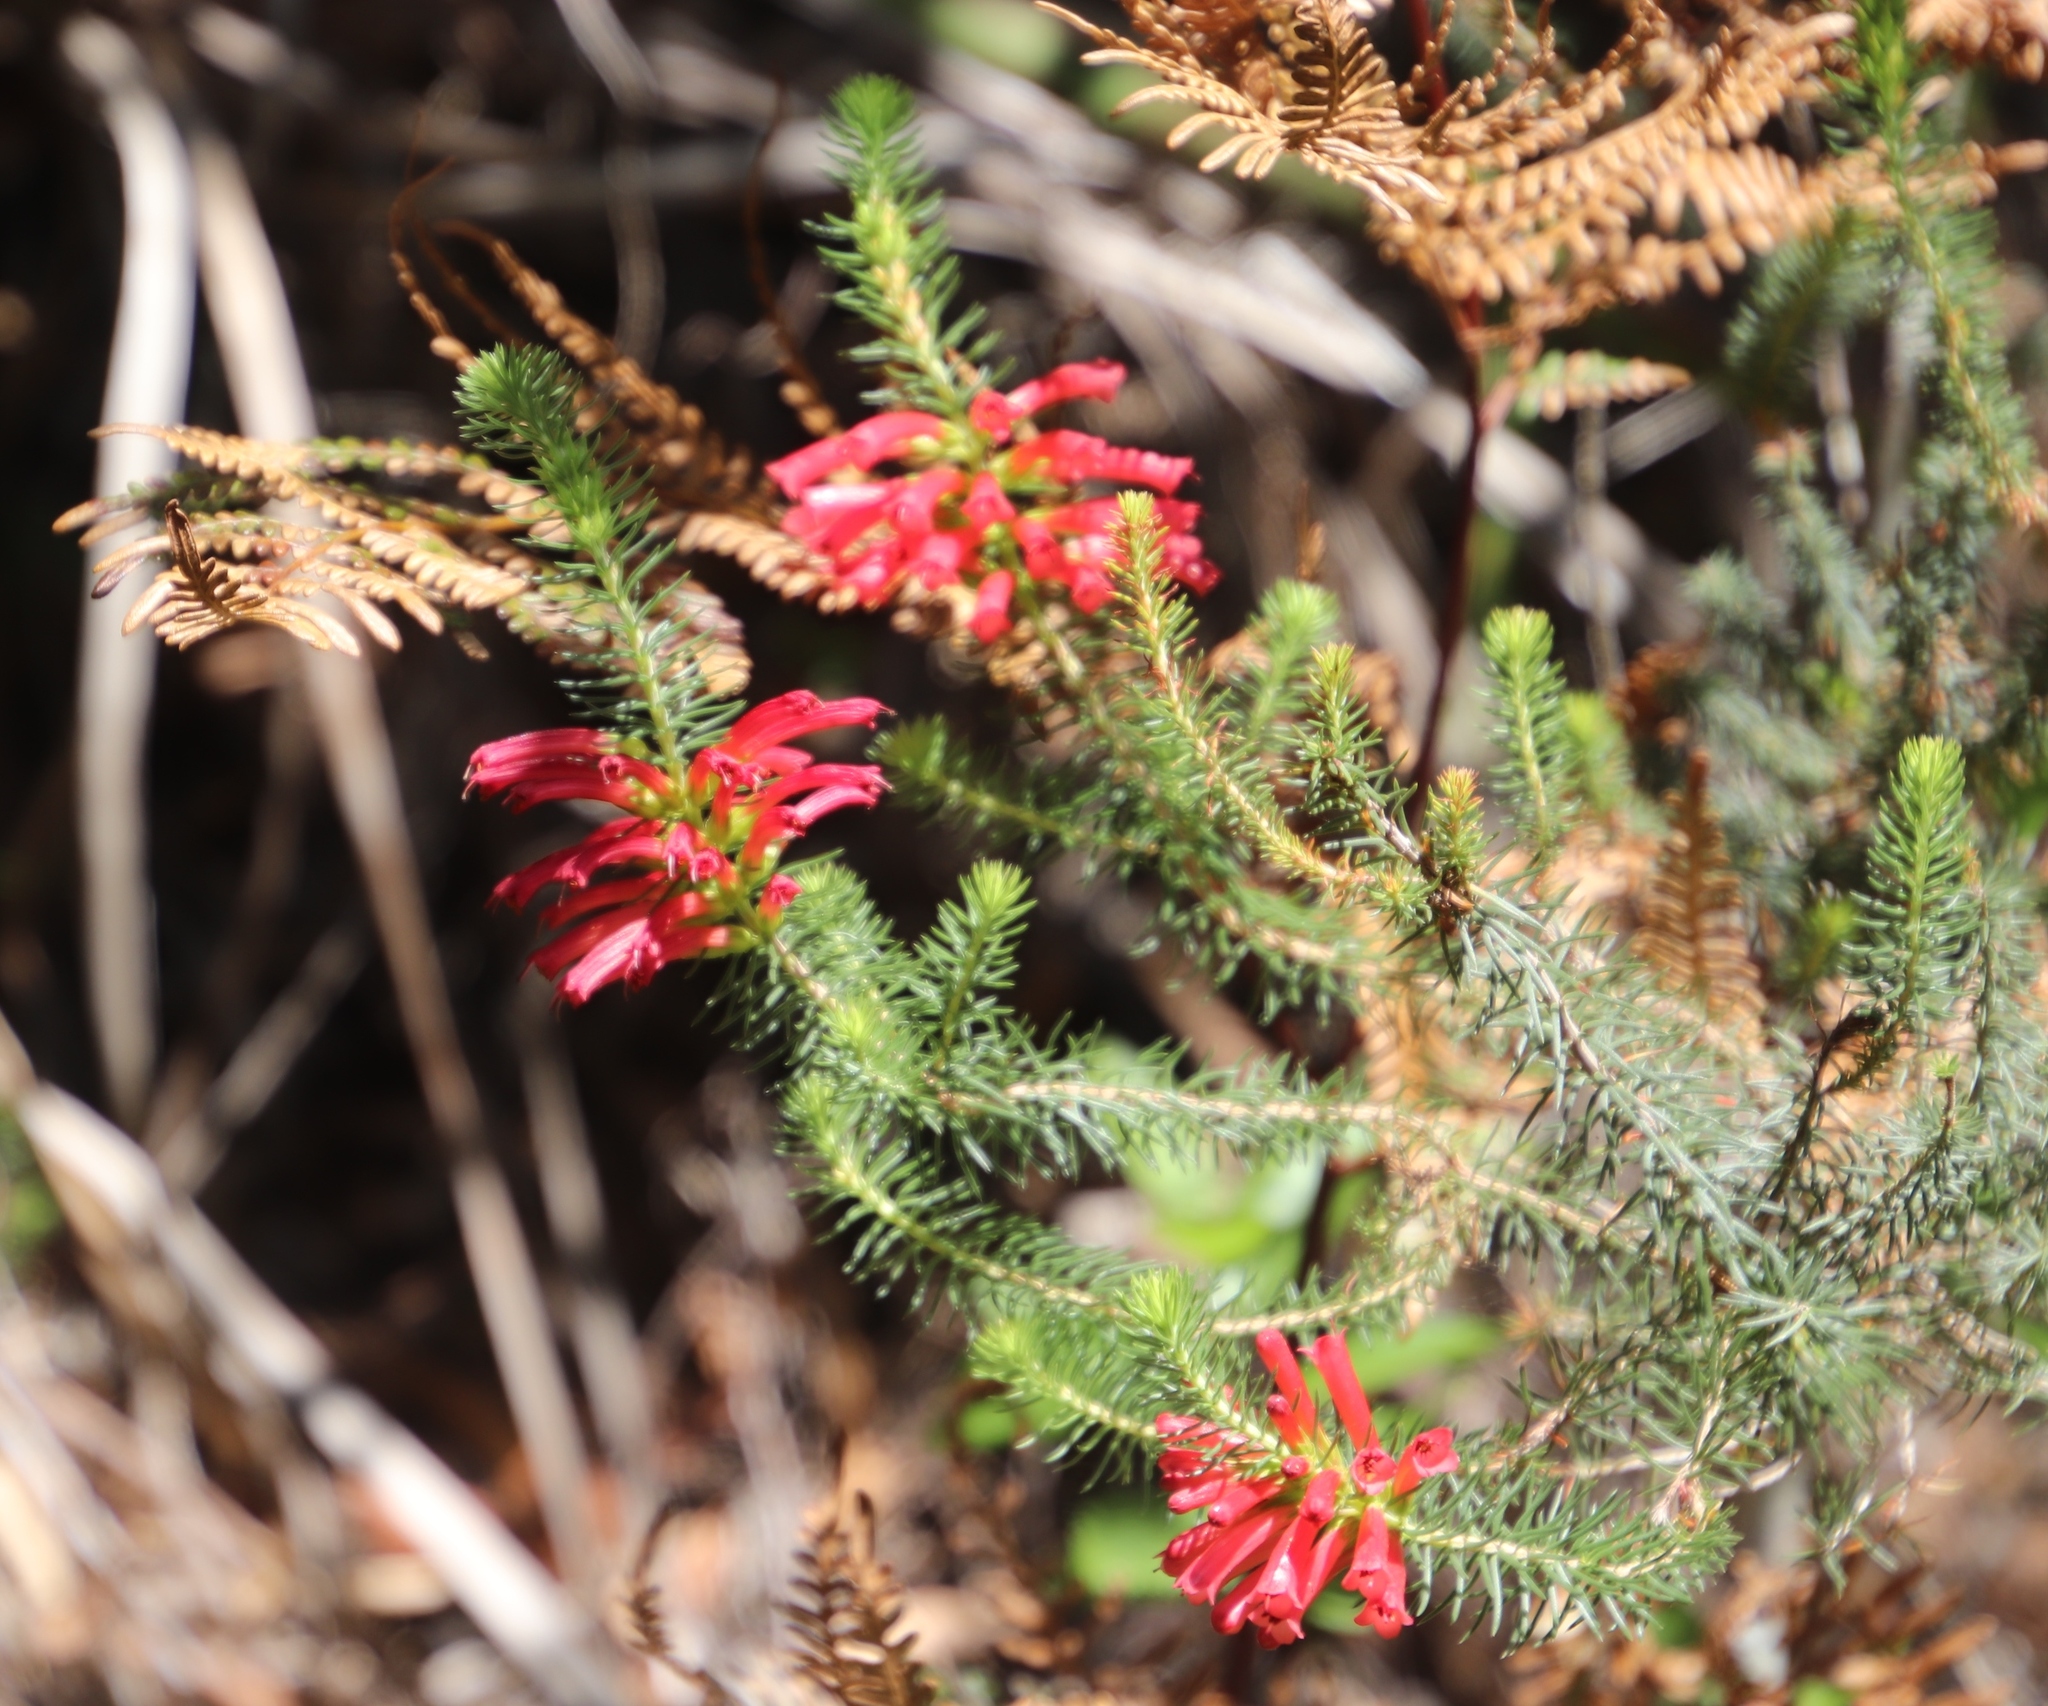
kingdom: Plantae
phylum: Tracheophyta
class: Magnoliopsida
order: Ericales
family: Ericaceae
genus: Erica
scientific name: Erica abietina
